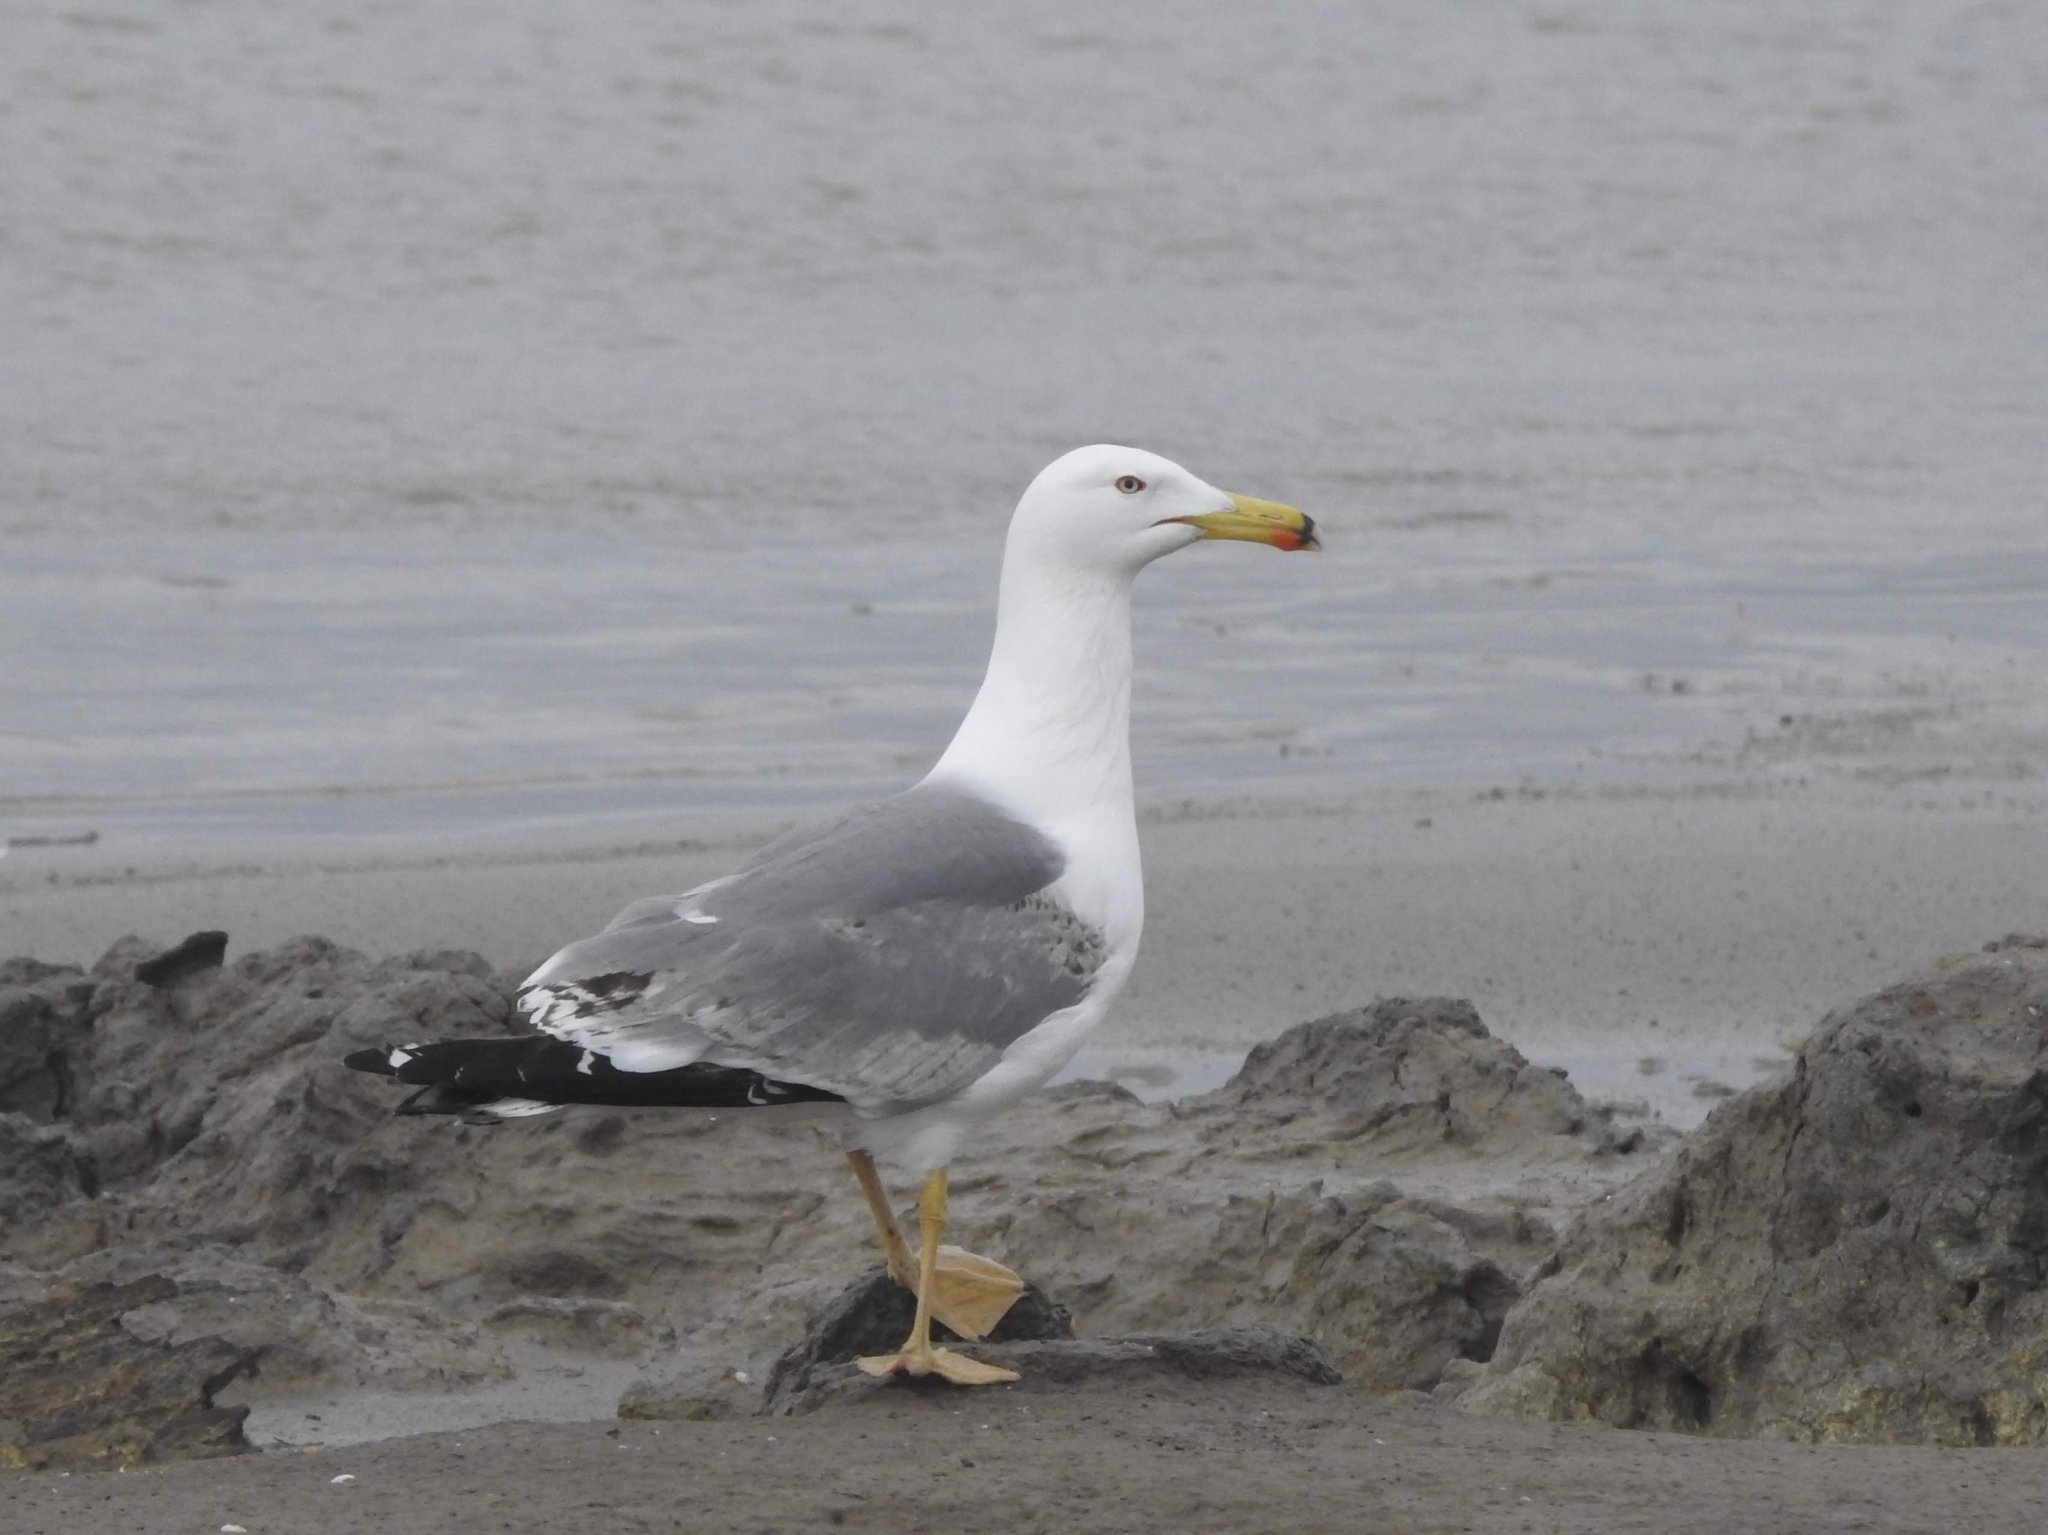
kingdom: Animalia
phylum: Chordata
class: Aves
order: Charadriiformes
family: Laridae
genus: Larus
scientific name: Larus michahellis
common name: Yellow-legged gull
